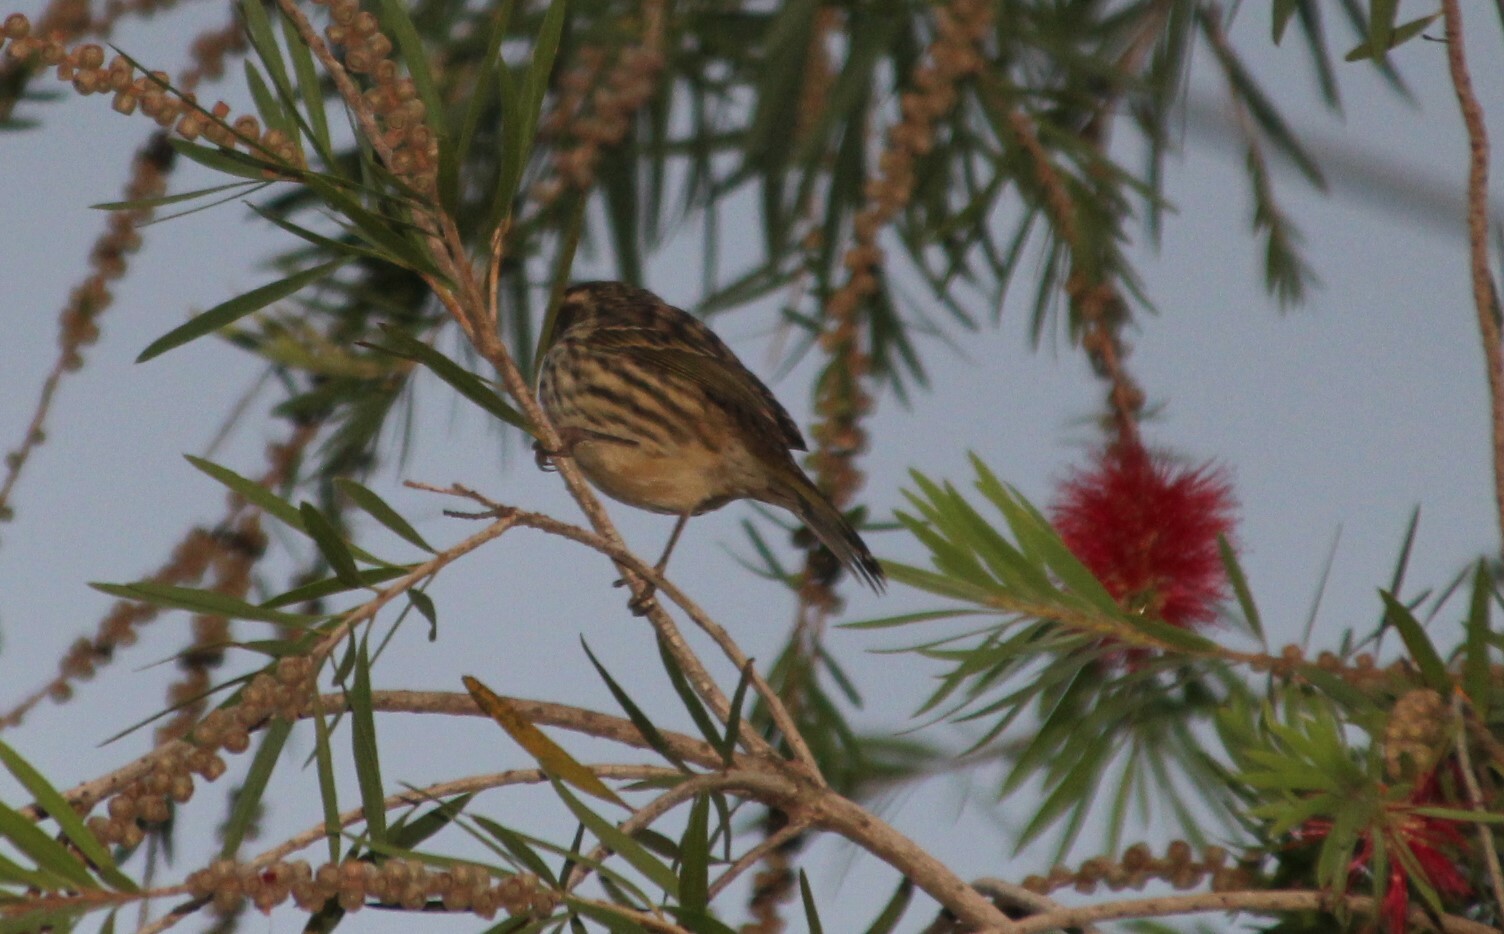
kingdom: Animalia
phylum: Chordata
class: Aves
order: Passeriformes
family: Fringillidae
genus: Crithagra
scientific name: Crithagra striolata
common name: Streaky seedeater
